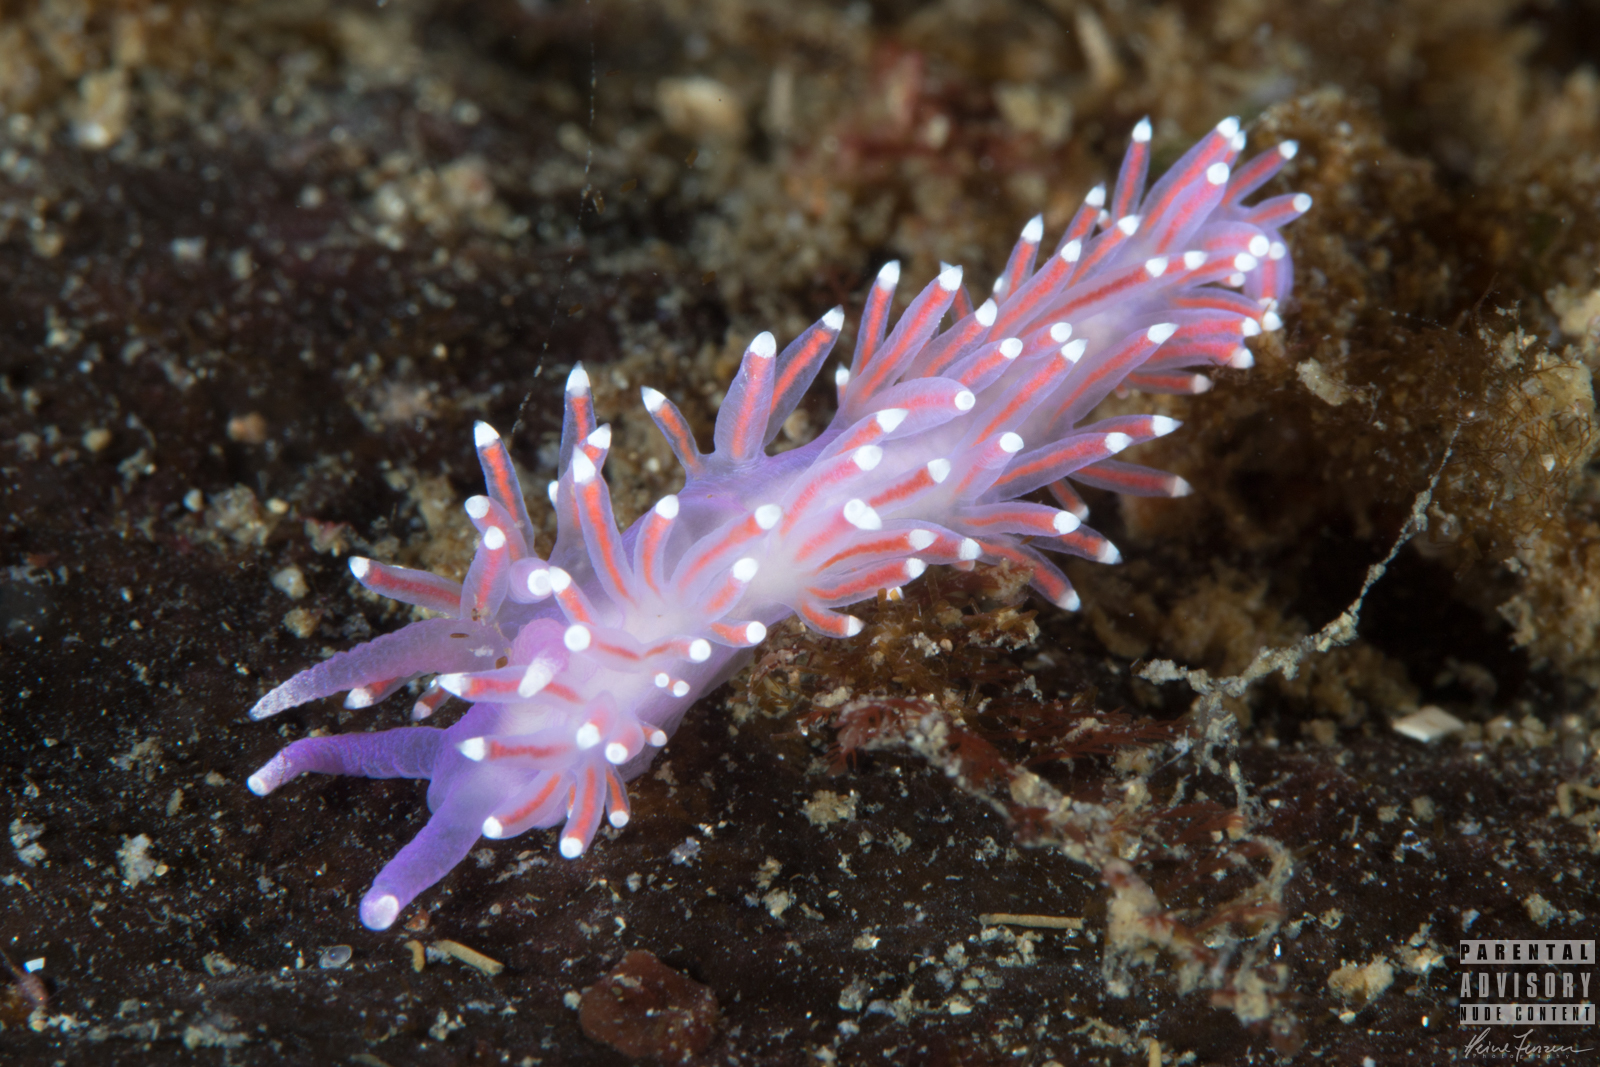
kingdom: Animalia
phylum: Mollusca
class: Gastropoda
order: Nudibranchia
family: Flabellinidae
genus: Edmundsella
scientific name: Edmundsella pedata
